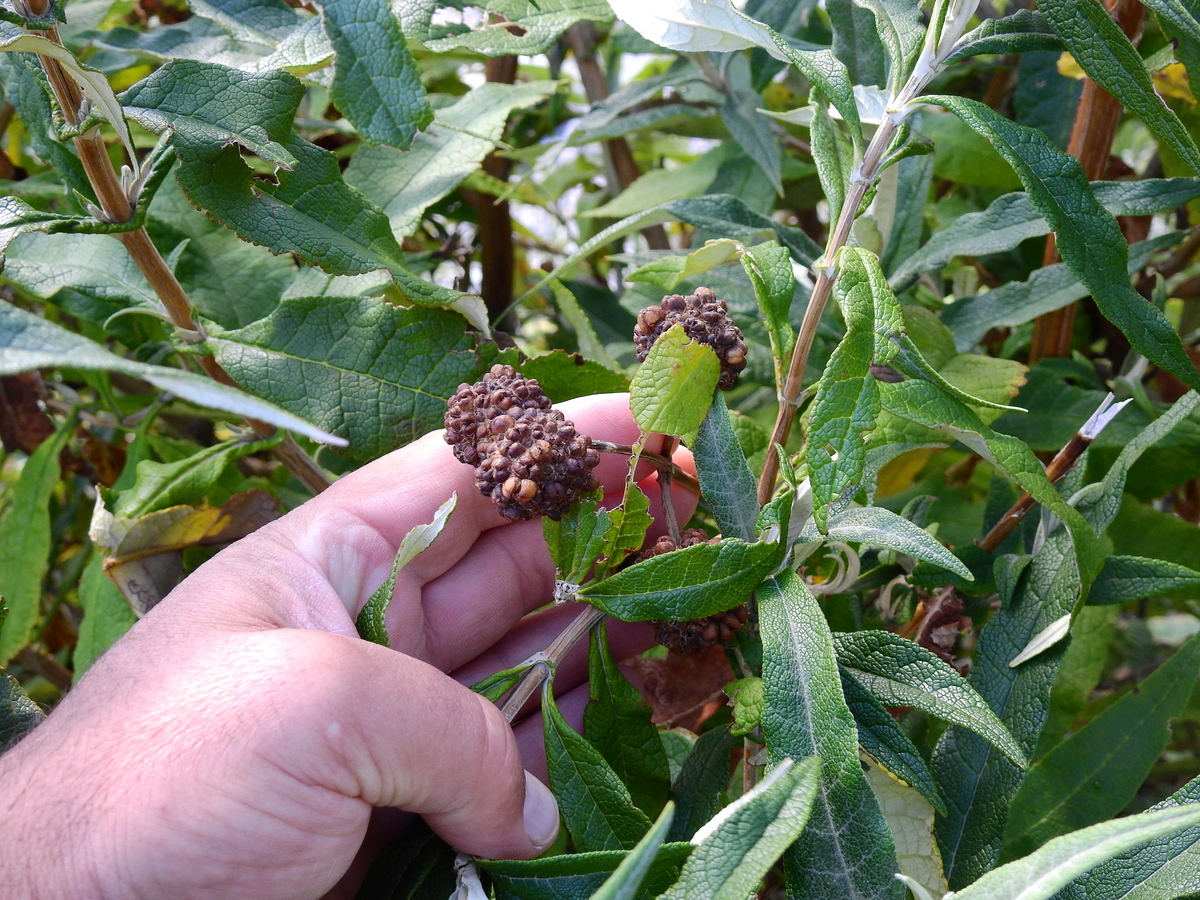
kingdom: Plantae
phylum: Tracheophyta
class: Magnoliopsida
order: Lamiales
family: Scrophulariaceae
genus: Buddleja
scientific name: Buddleja globosa
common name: Orange-ball-tree
